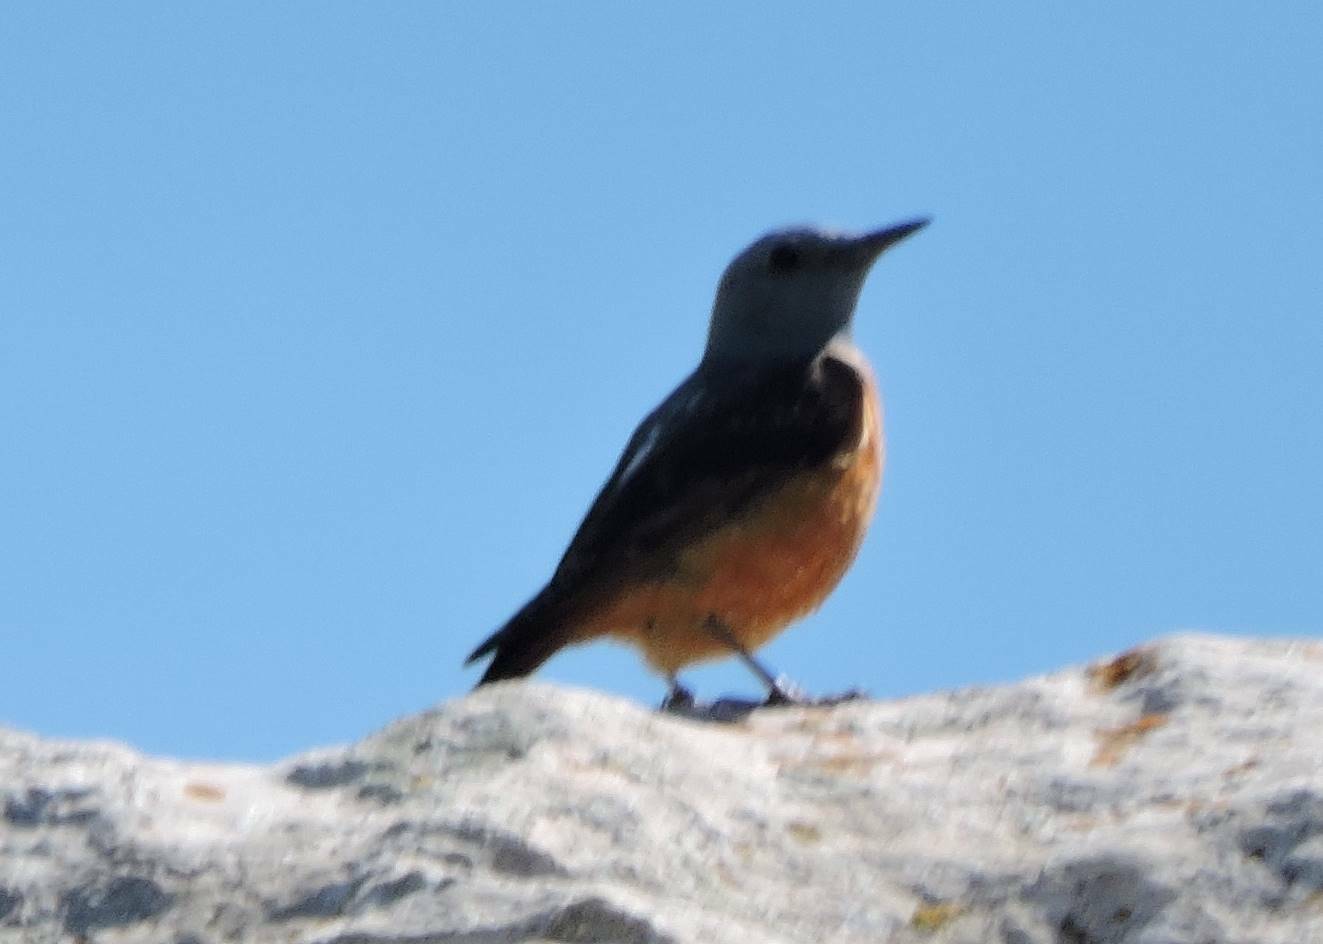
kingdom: Animalia
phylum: Chordata
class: Aves
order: Passeriformes
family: Muscicapidae
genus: Monticola
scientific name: Monticola saxatilis
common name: Rufous-tailed rock thrush
